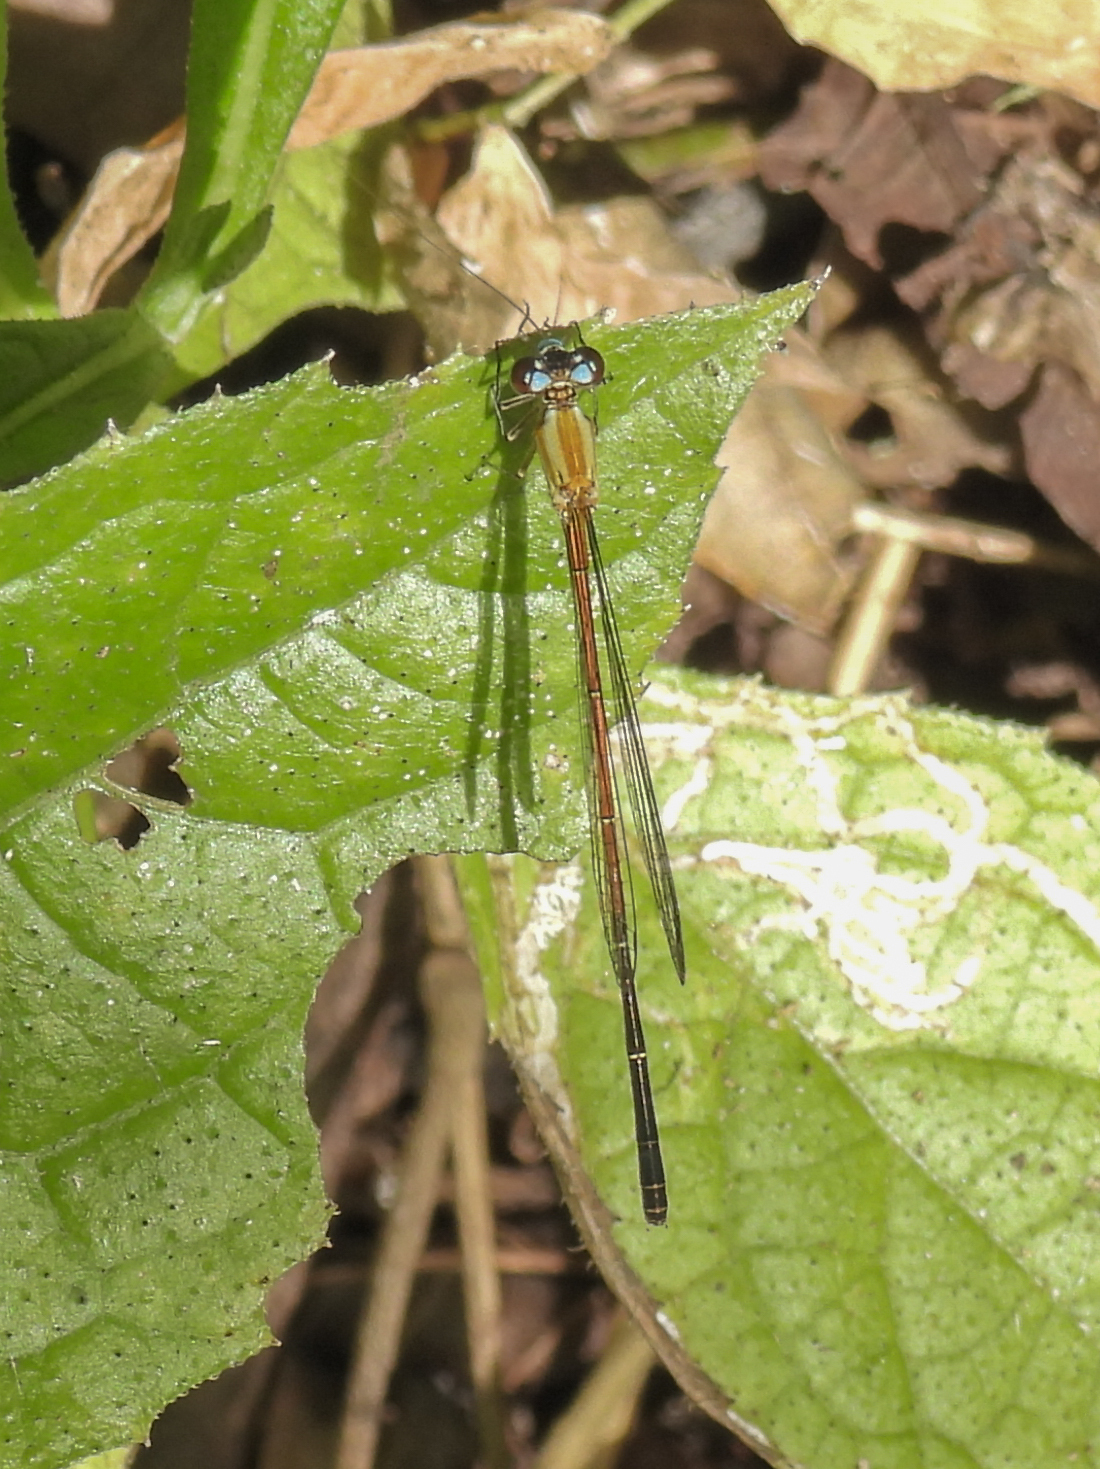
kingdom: Animalia
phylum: Arthropoda
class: Insecta
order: Odonata
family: Coenagrionidae
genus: Anisagrion
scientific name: Anisagrion allopterum
